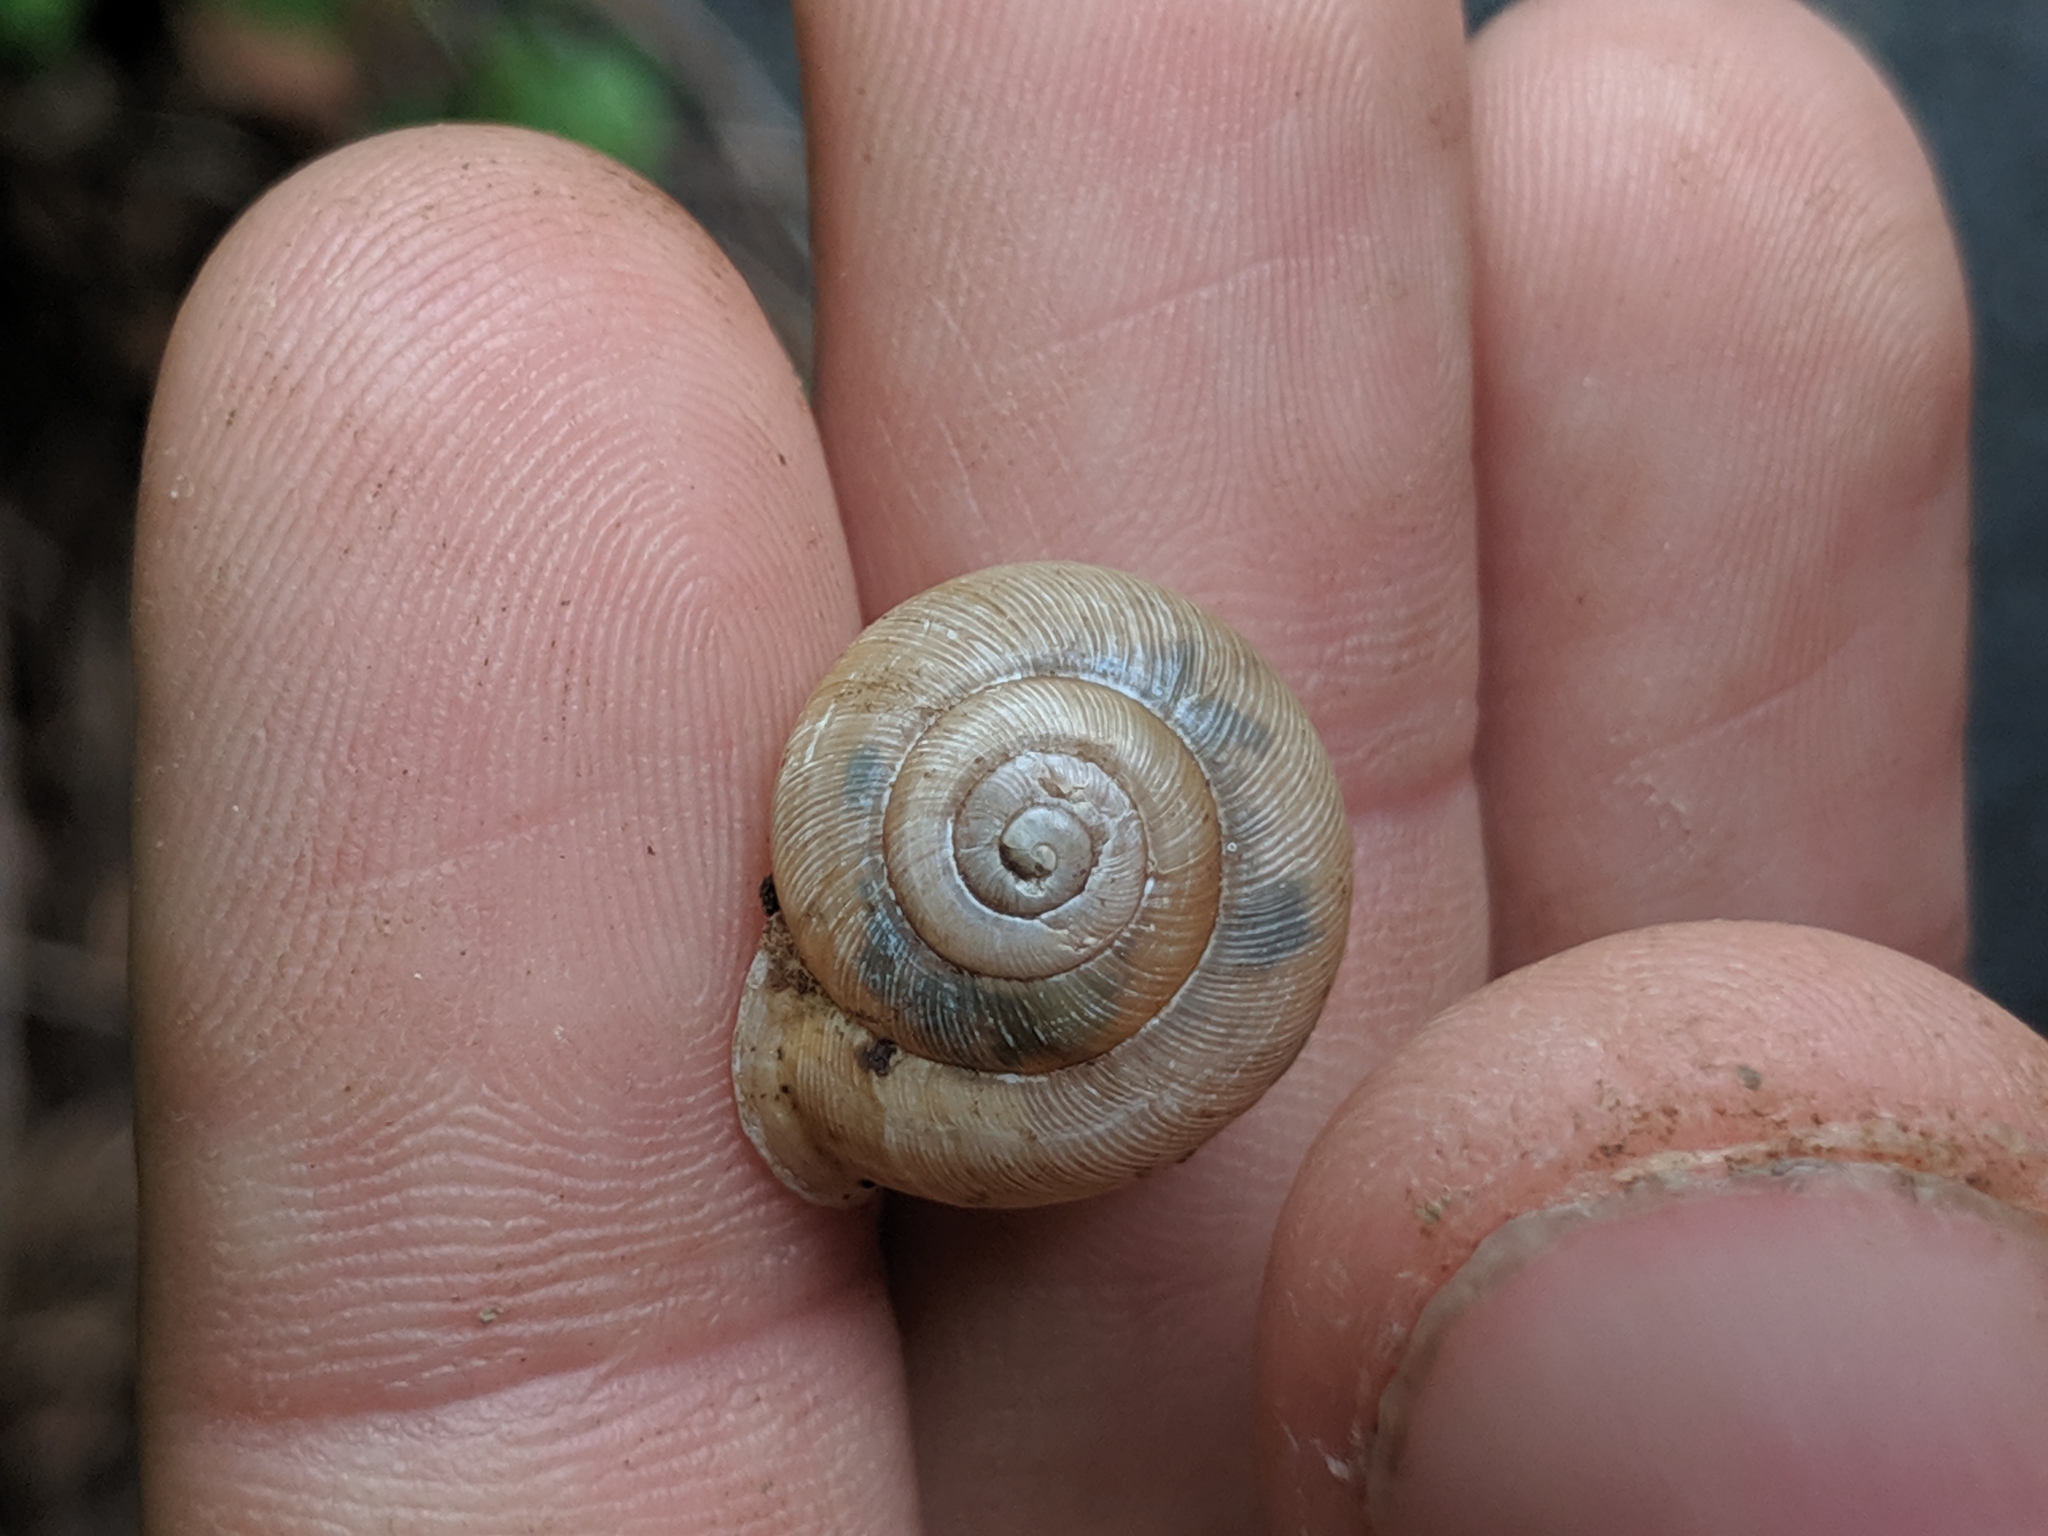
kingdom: Animalia
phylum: Mollusca
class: Gastropoda
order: Stylommatophora
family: Polygyridae
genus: Mesodon
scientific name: Mesodon clausus
